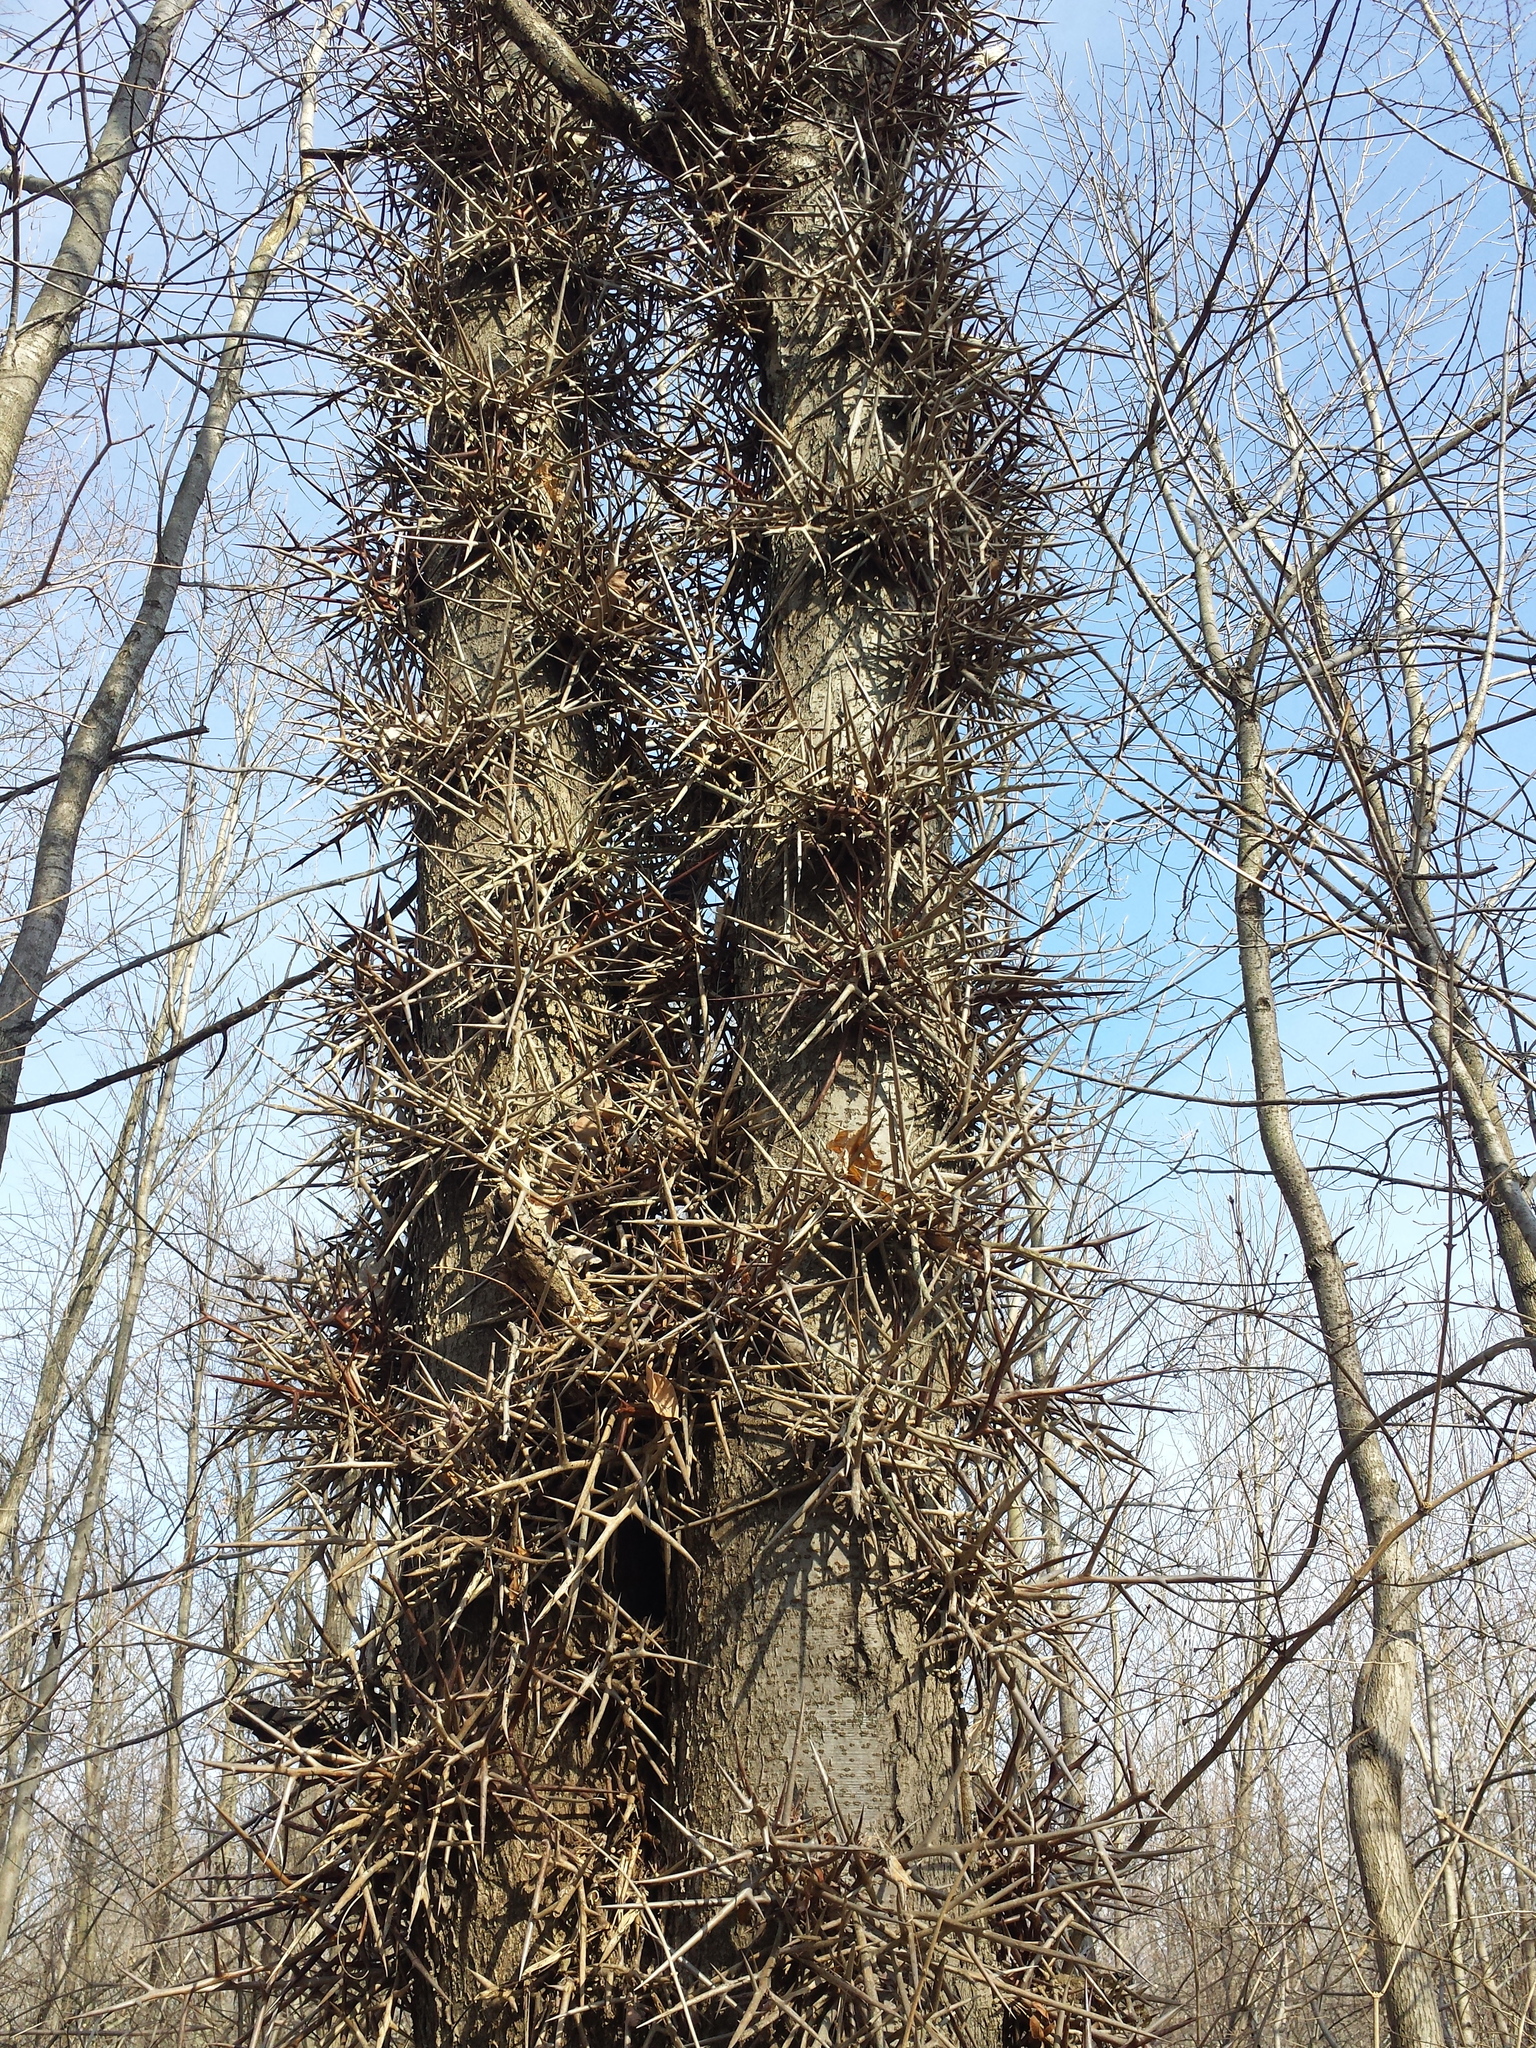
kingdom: Plantae
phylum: Tracheophyta
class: Magnoliopsida
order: Fabales
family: Fabaceae
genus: Gleditsia
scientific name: Gleditsia triacanthos
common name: Common honeylocust
